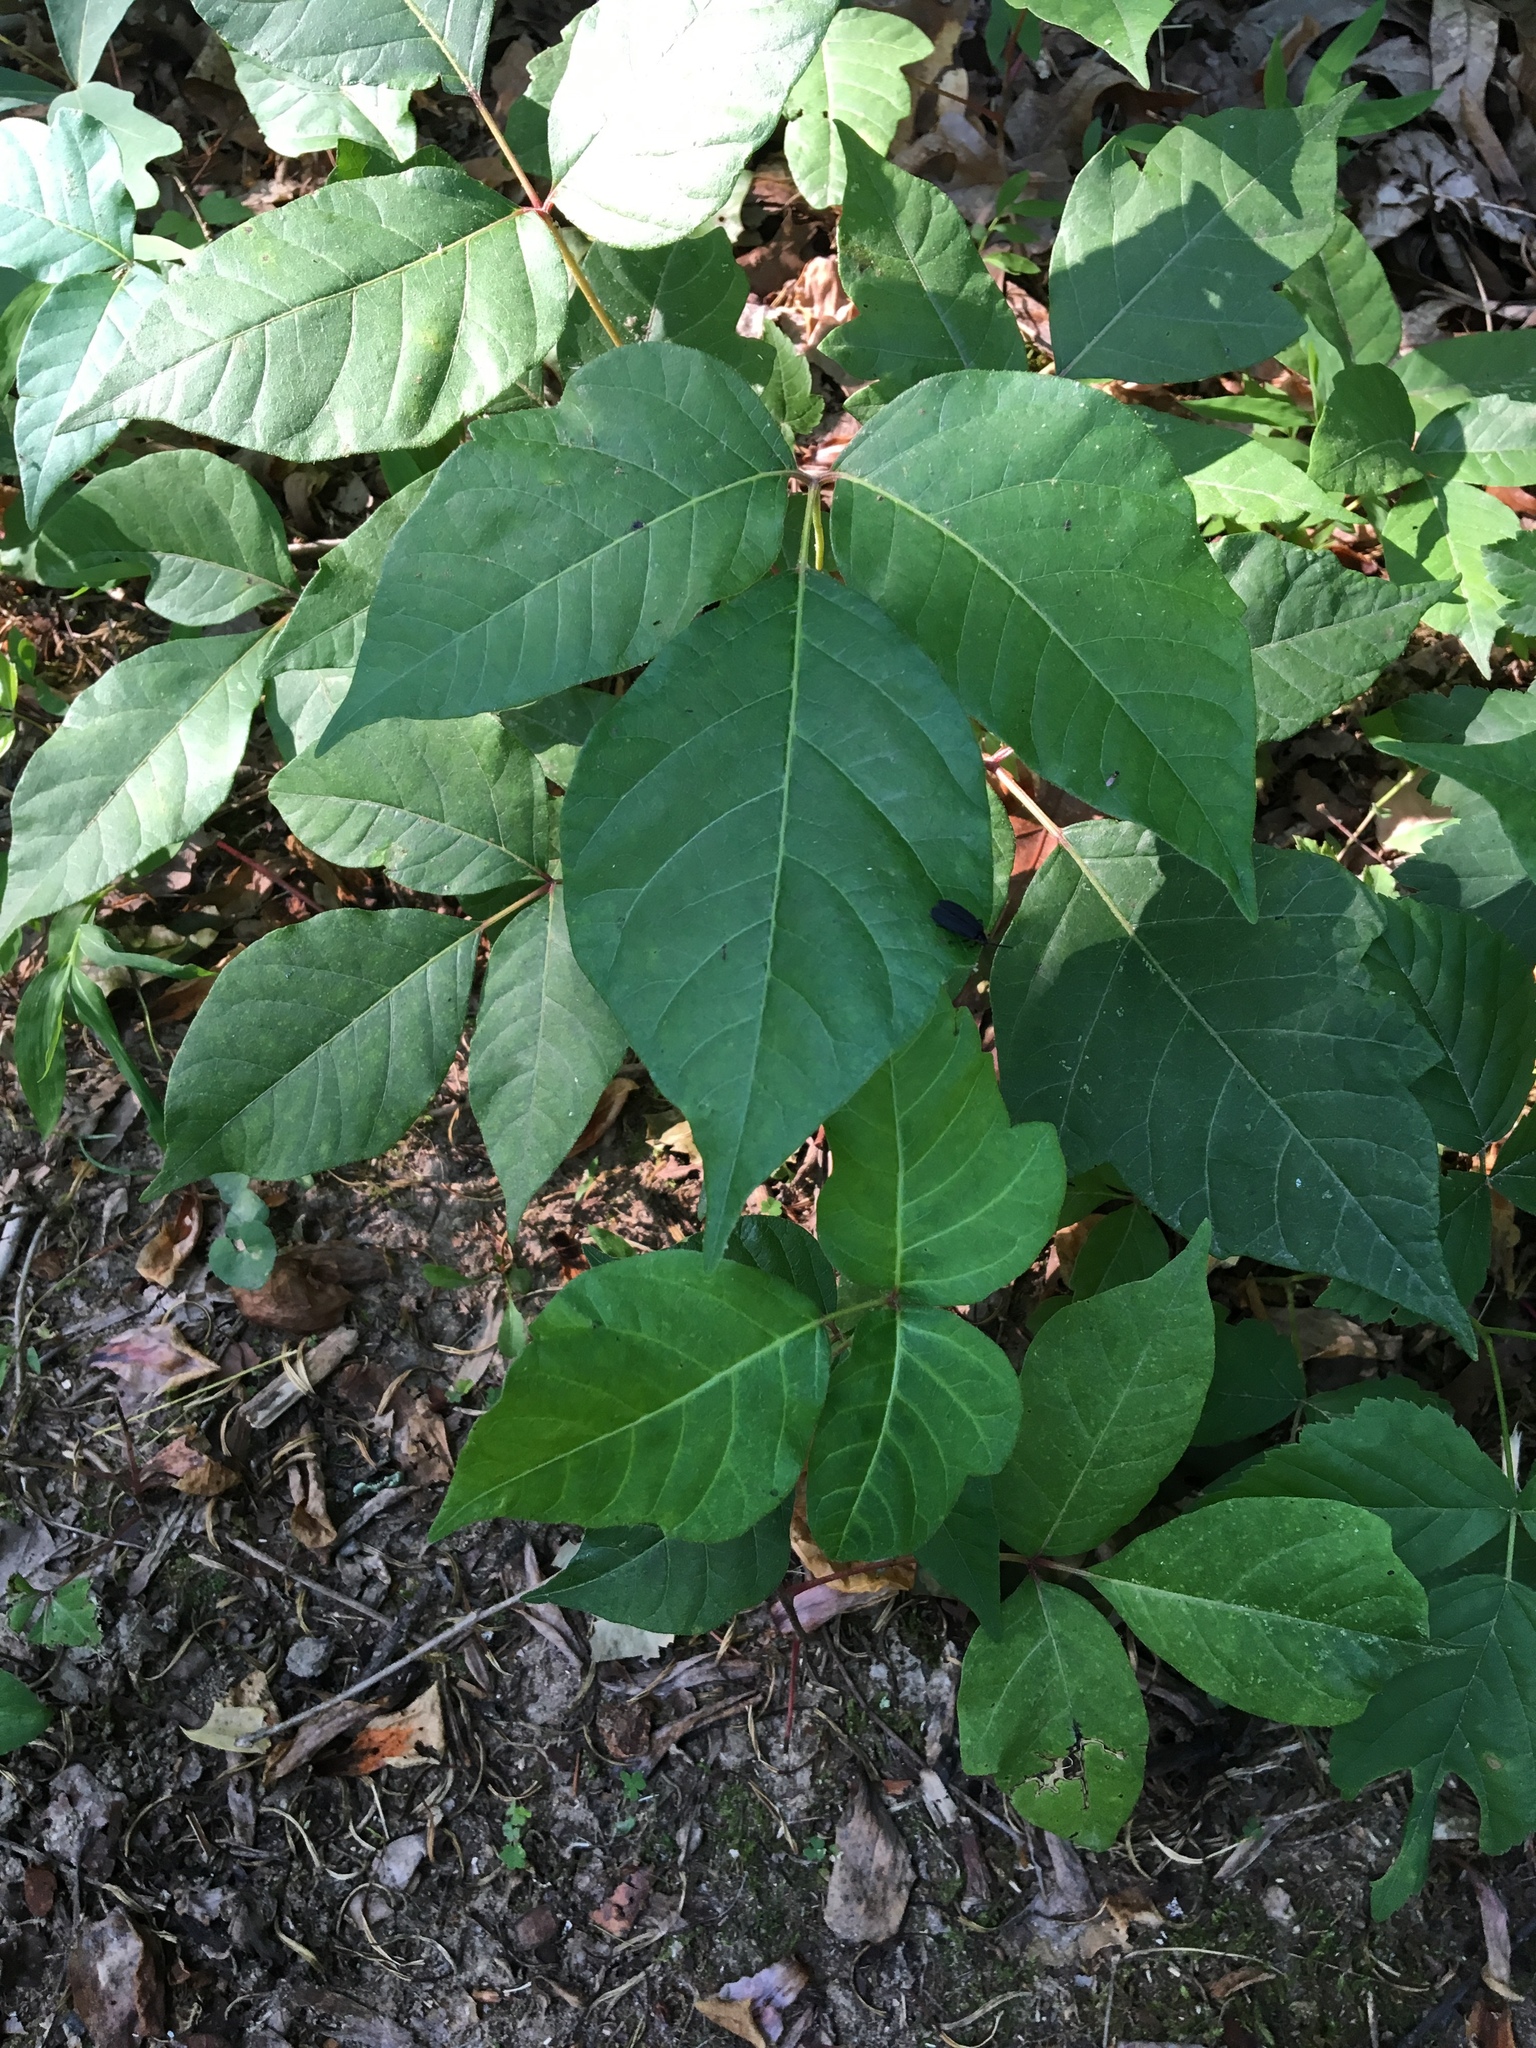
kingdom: Plantae
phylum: Tracheophyta
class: Magnoliopsida
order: Sapindales
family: Anacardiaceae
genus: Toxicodendron
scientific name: Toxicodendron radicans
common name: Poison ivy
